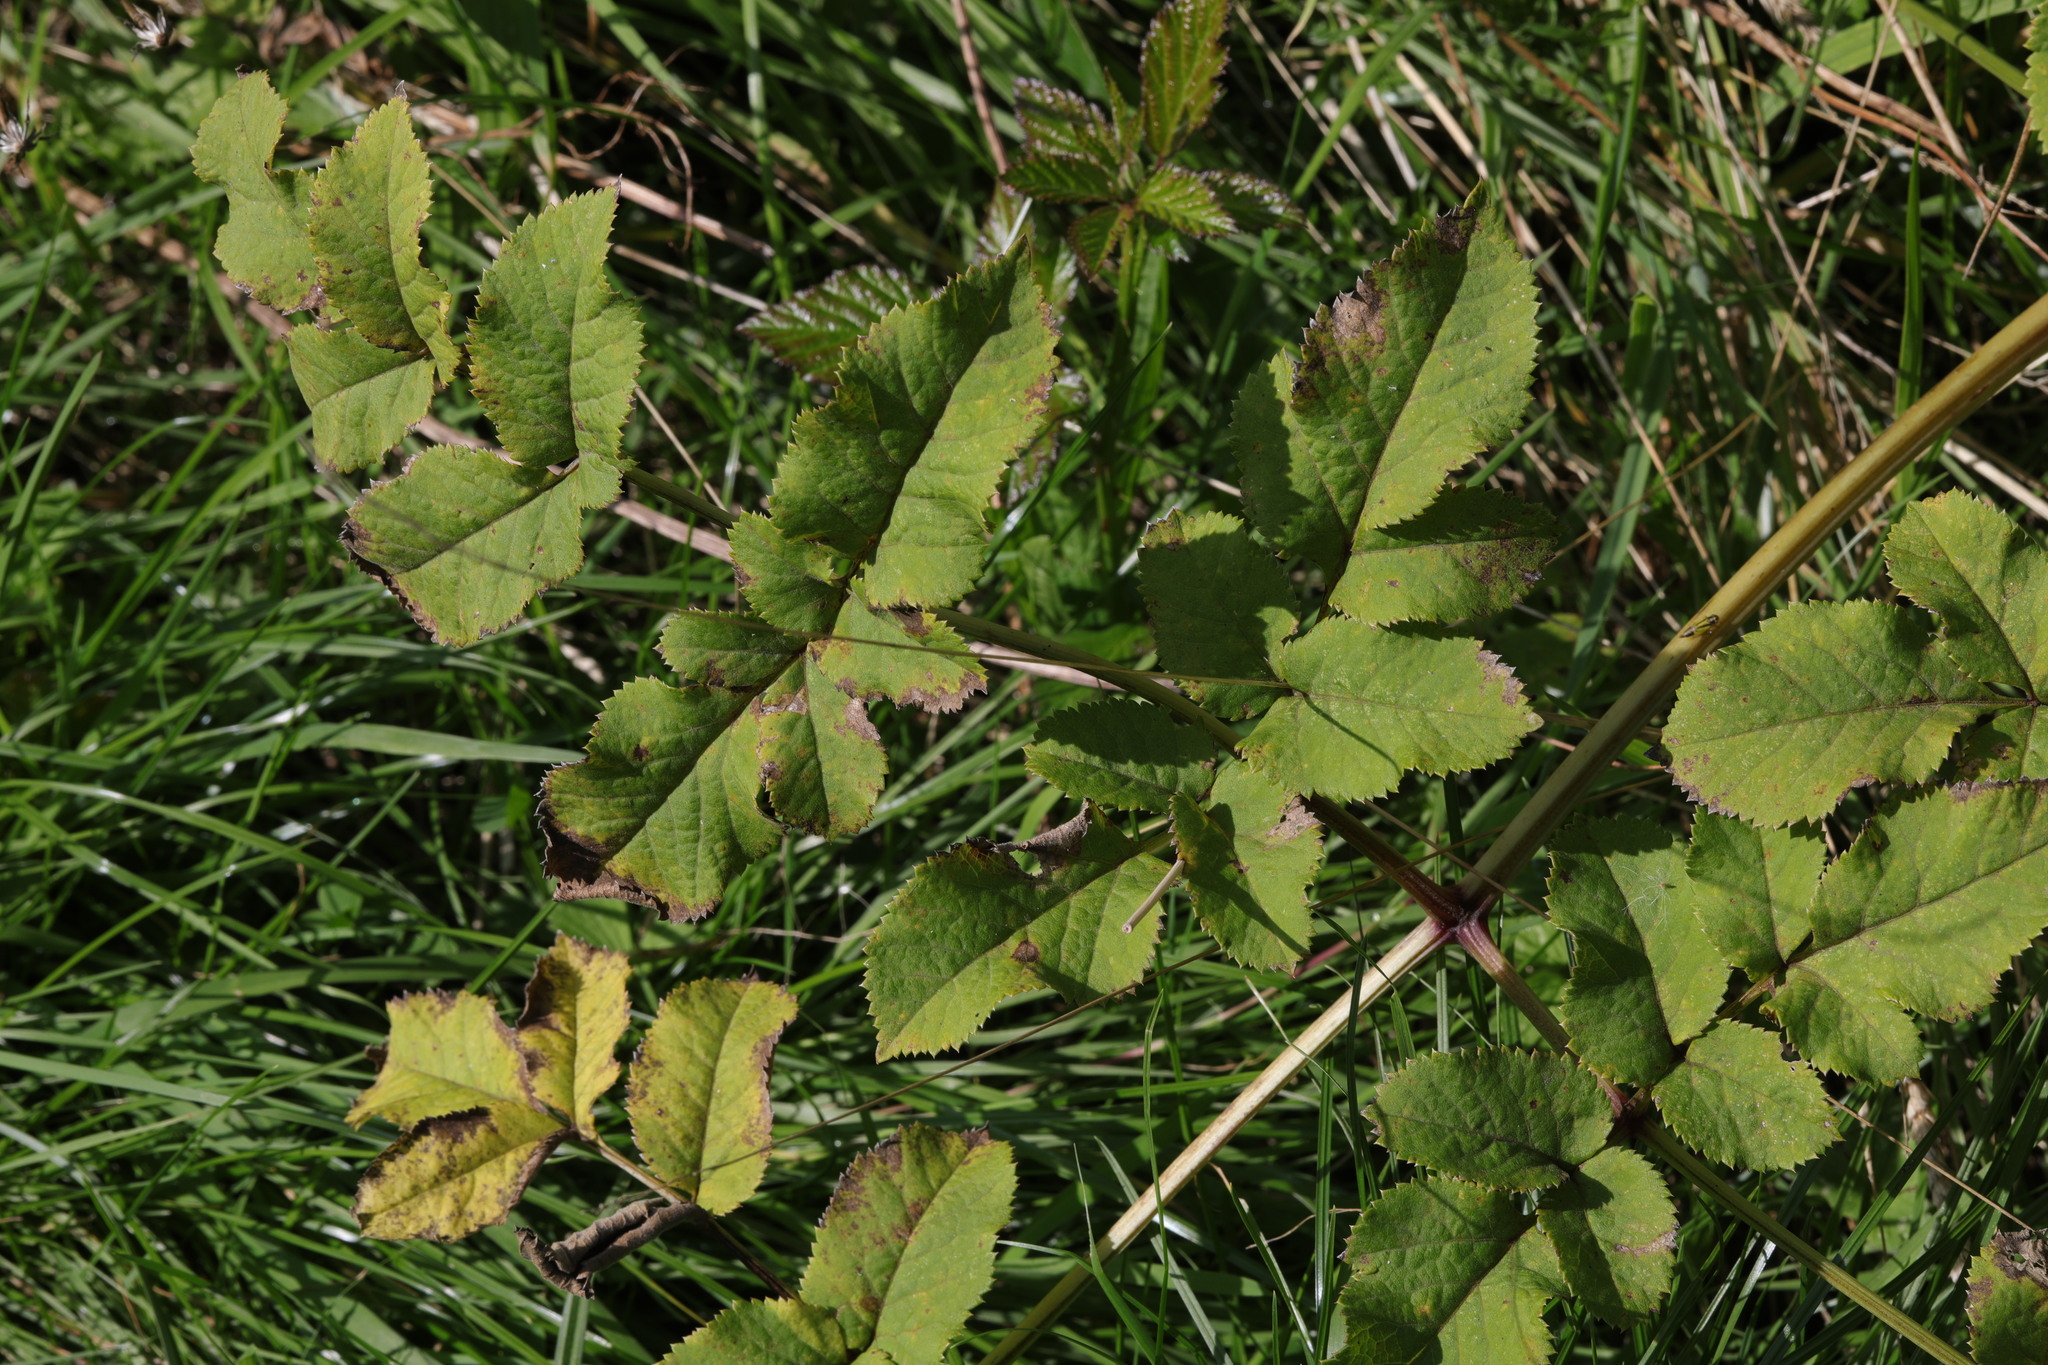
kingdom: Plantae
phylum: Tracheophyta
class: Magnoliopsida
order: Apiales
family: Apiaceae
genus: Angelica
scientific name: Angelica sylvestris
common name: Wild angelica
